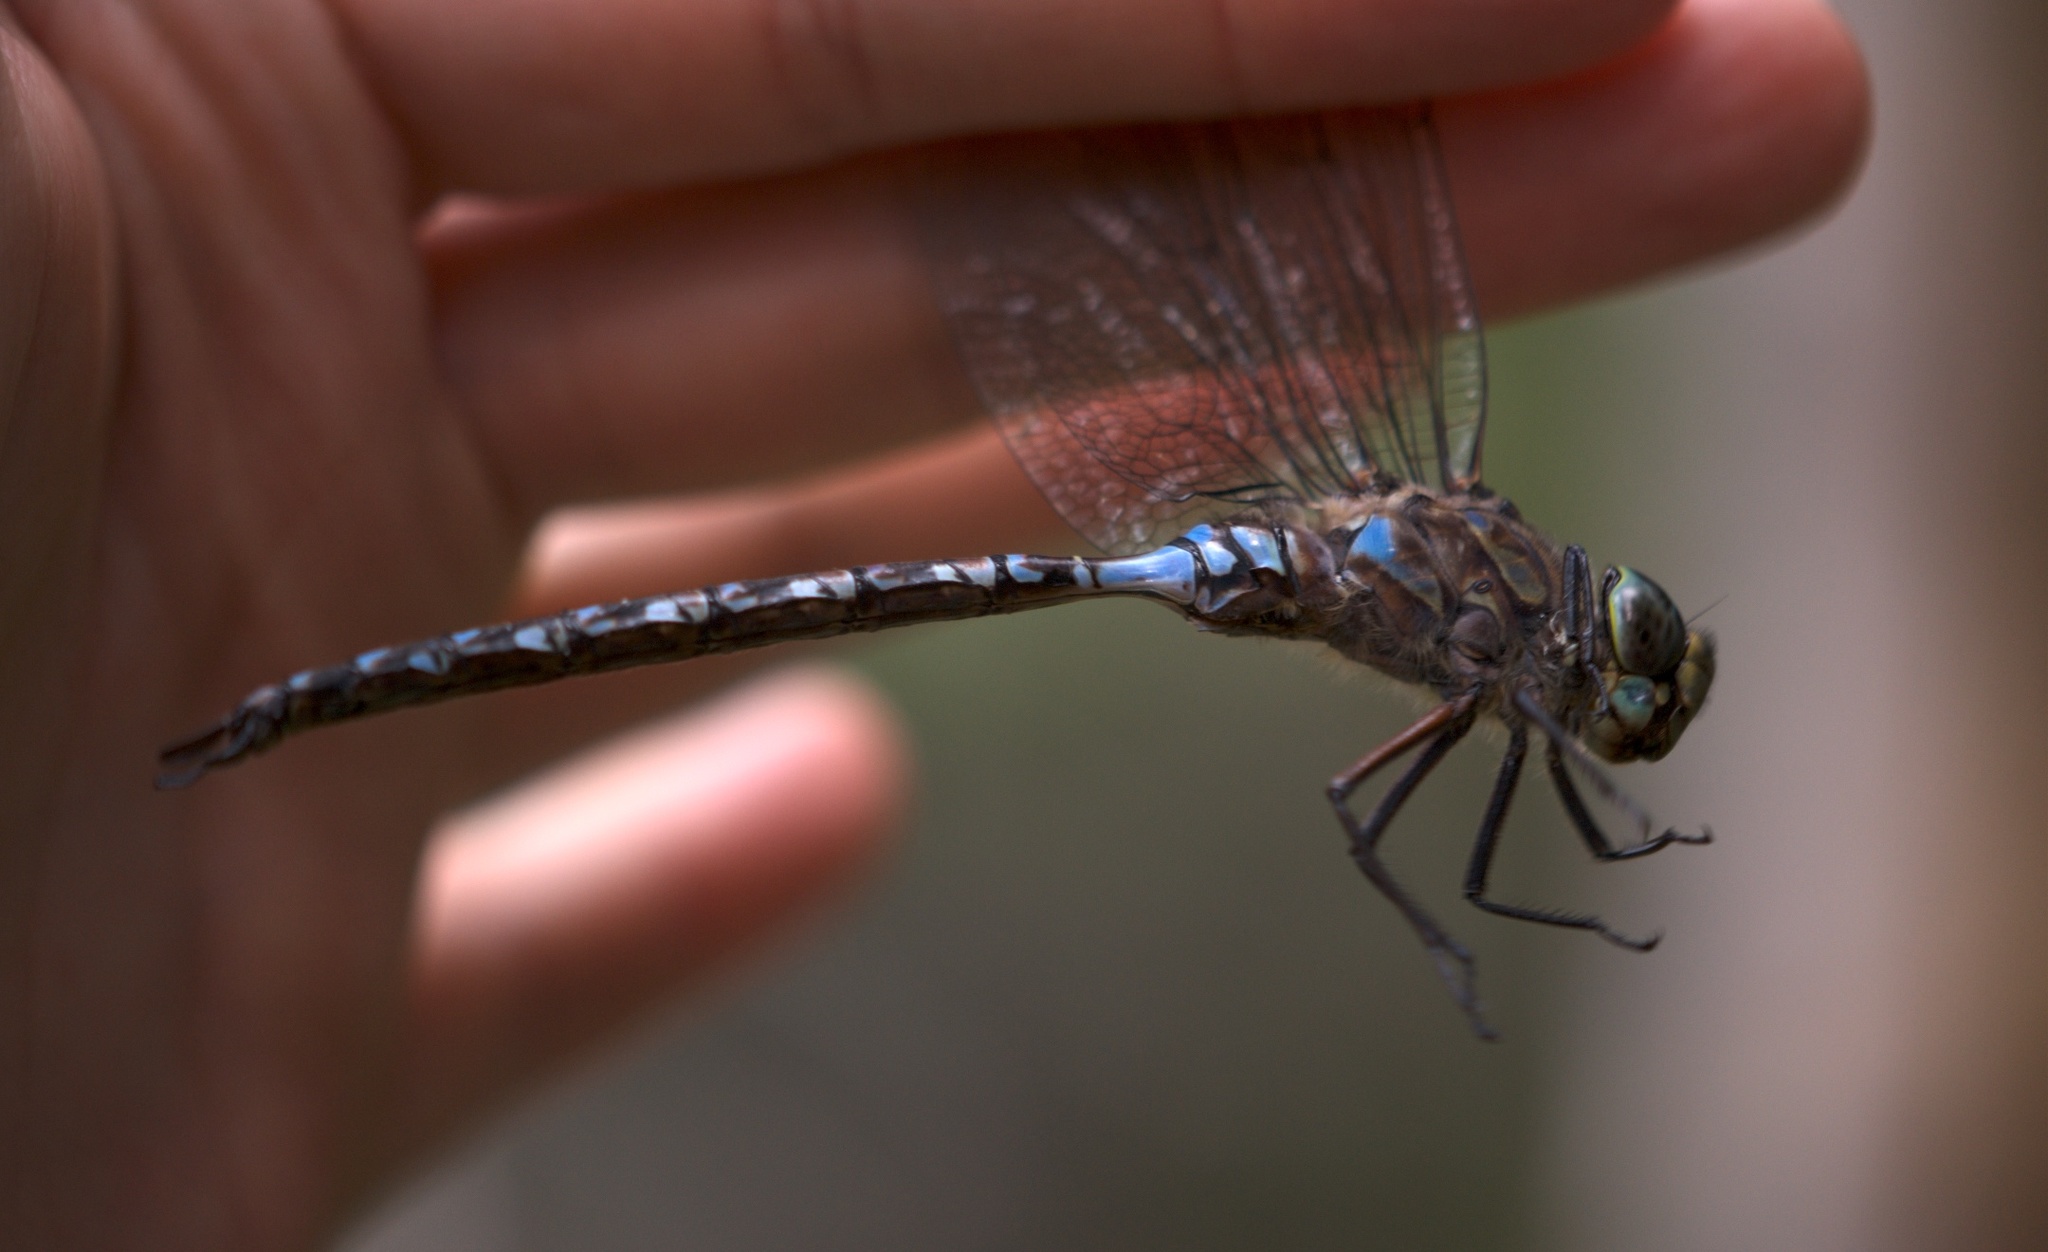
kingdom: Animalia
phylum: Arthropoda
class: Insecta
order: Odonata
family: Aeshnidae
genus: Aeshna
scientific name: Aeshna eremita
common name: Lake darner
